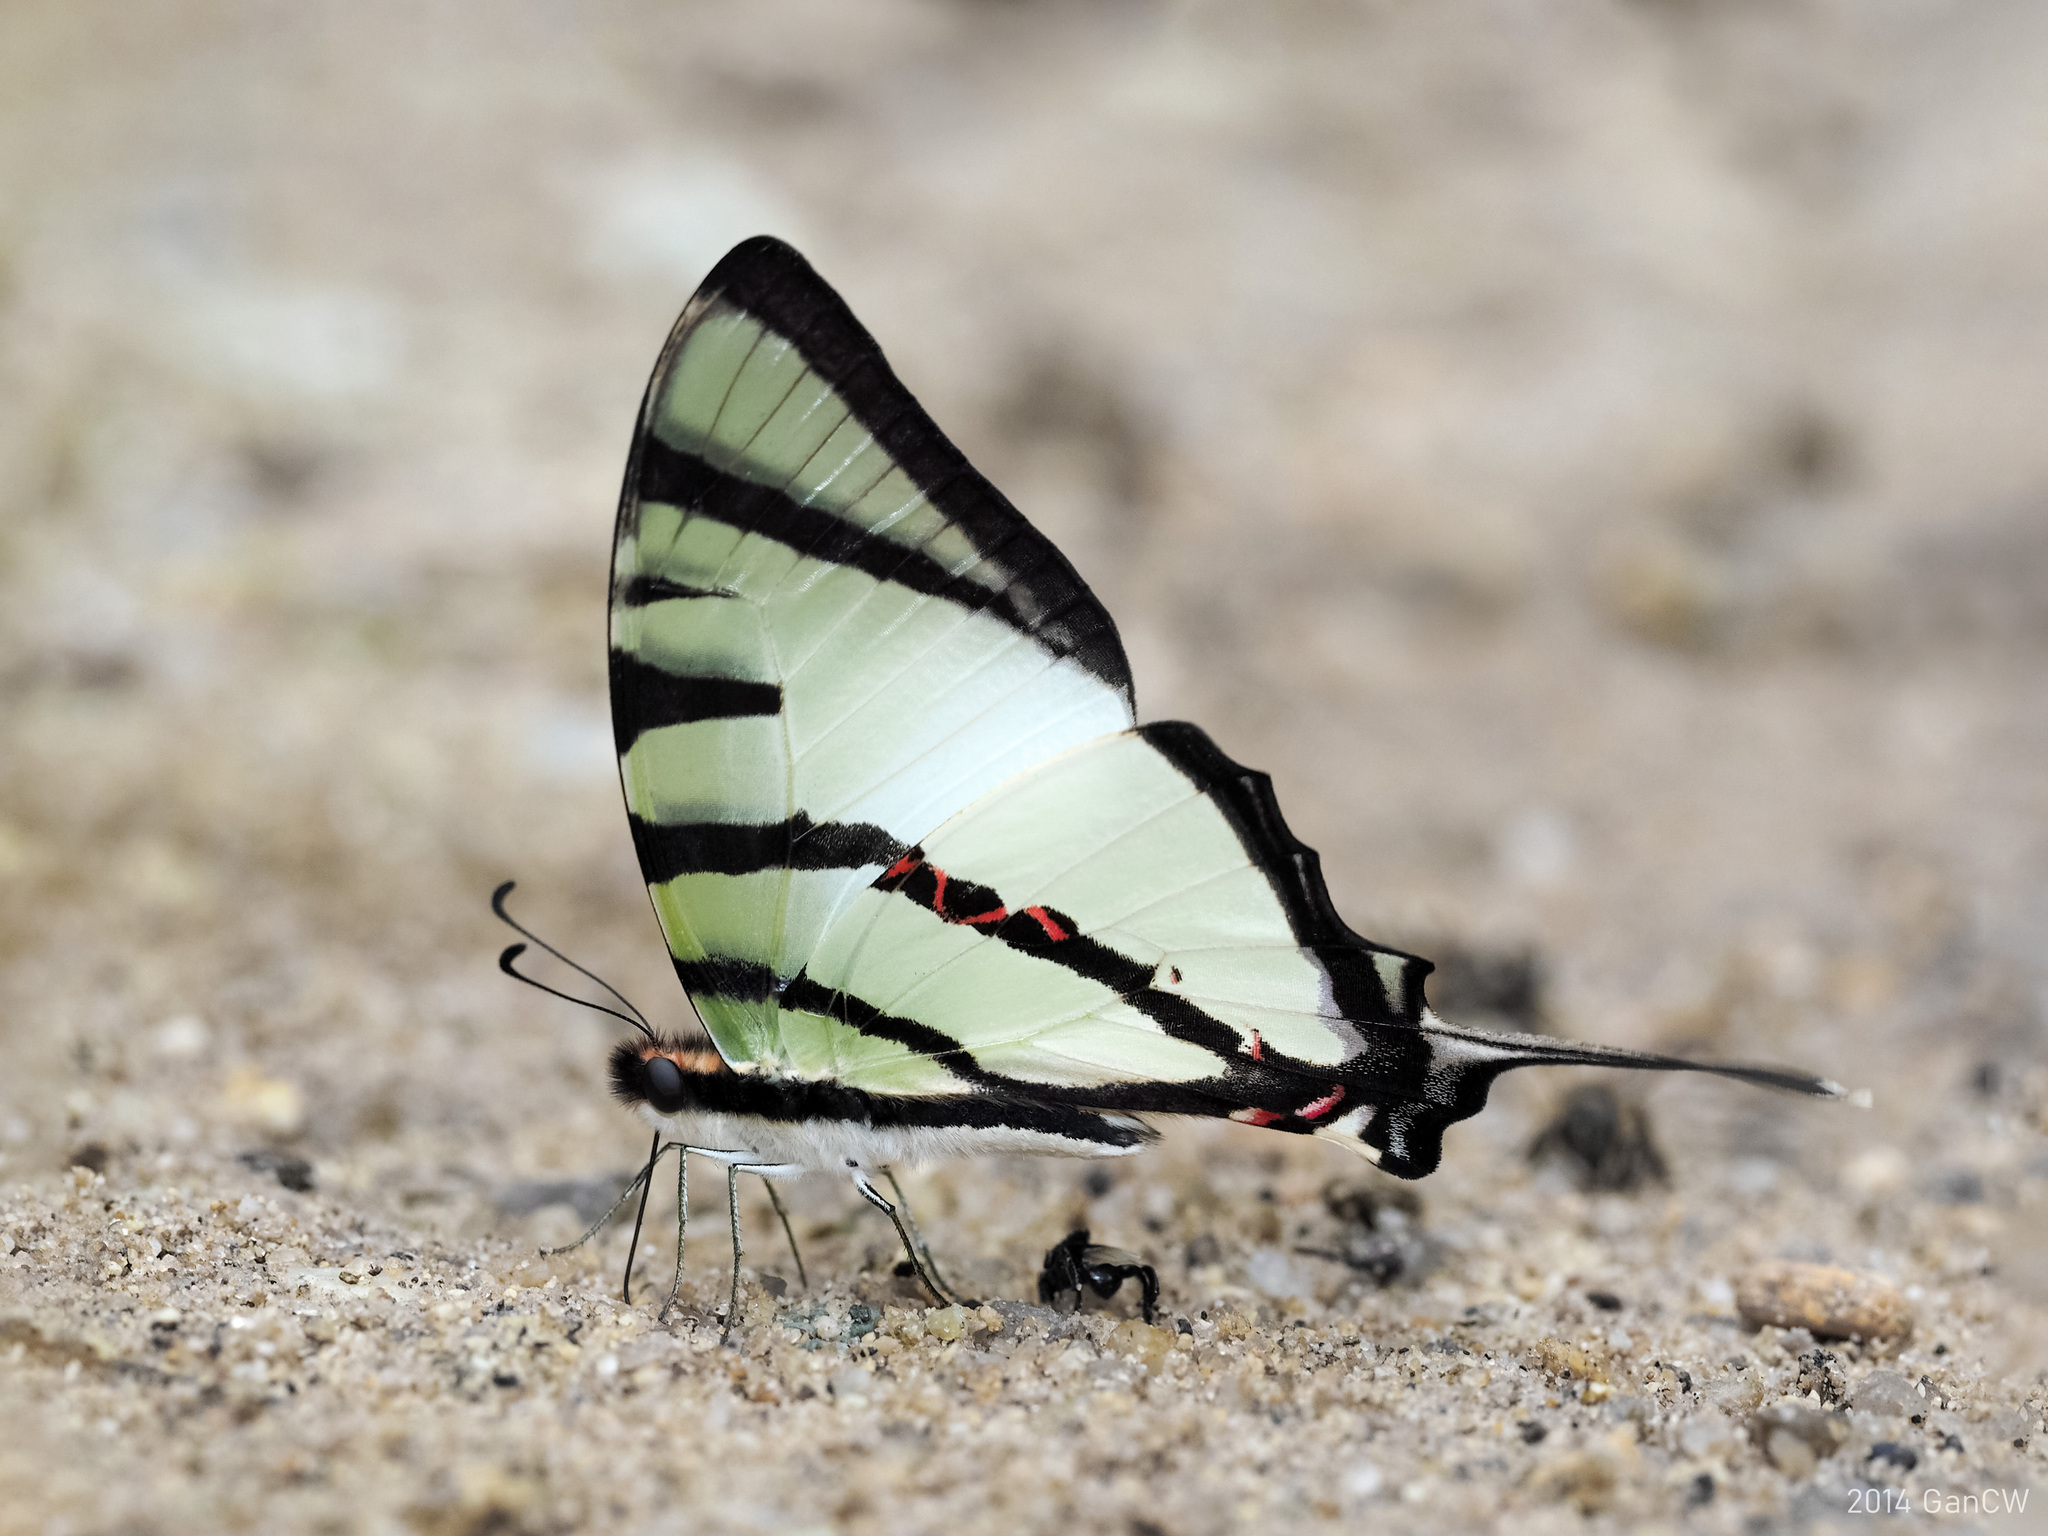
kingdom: Animalia
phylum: Arthropoda
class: Insecta
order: Lepidoptera
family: Papilionidae
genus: Graphium
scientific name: Graphium agetes
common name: Fourbar swordtail
